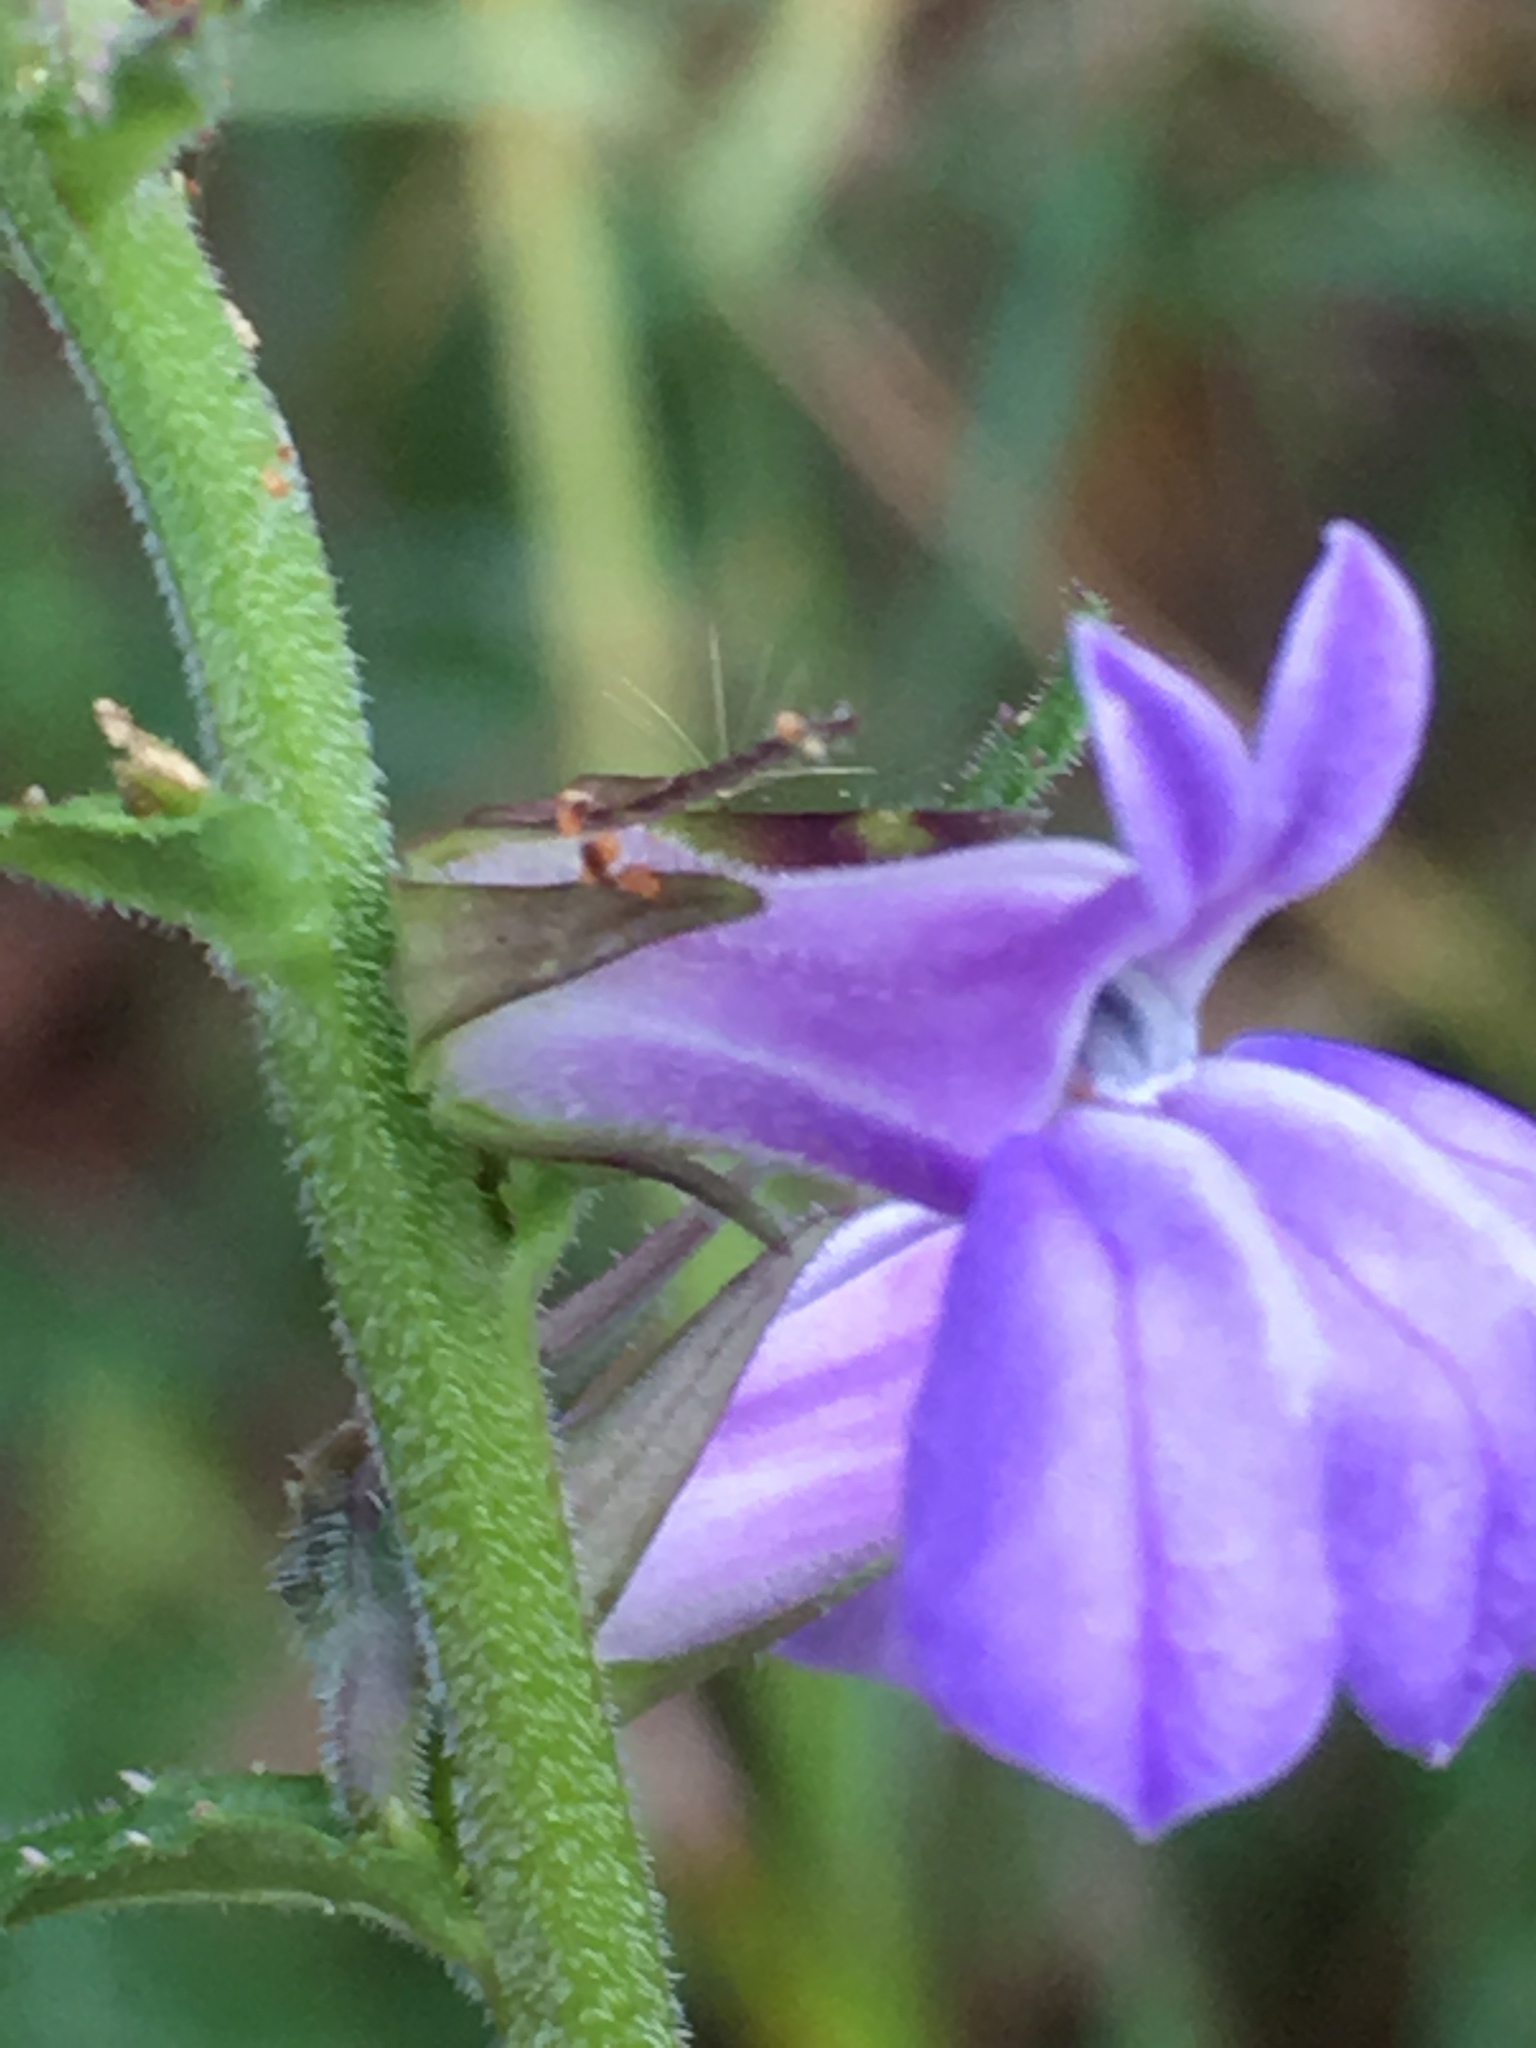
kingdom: Plantae
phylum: Tracheophyta
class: Magnoliopsida
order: Asterales
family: Campanulaceae
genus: Lobelia
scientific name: Lobelia puberula
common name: Purple dewdrop
